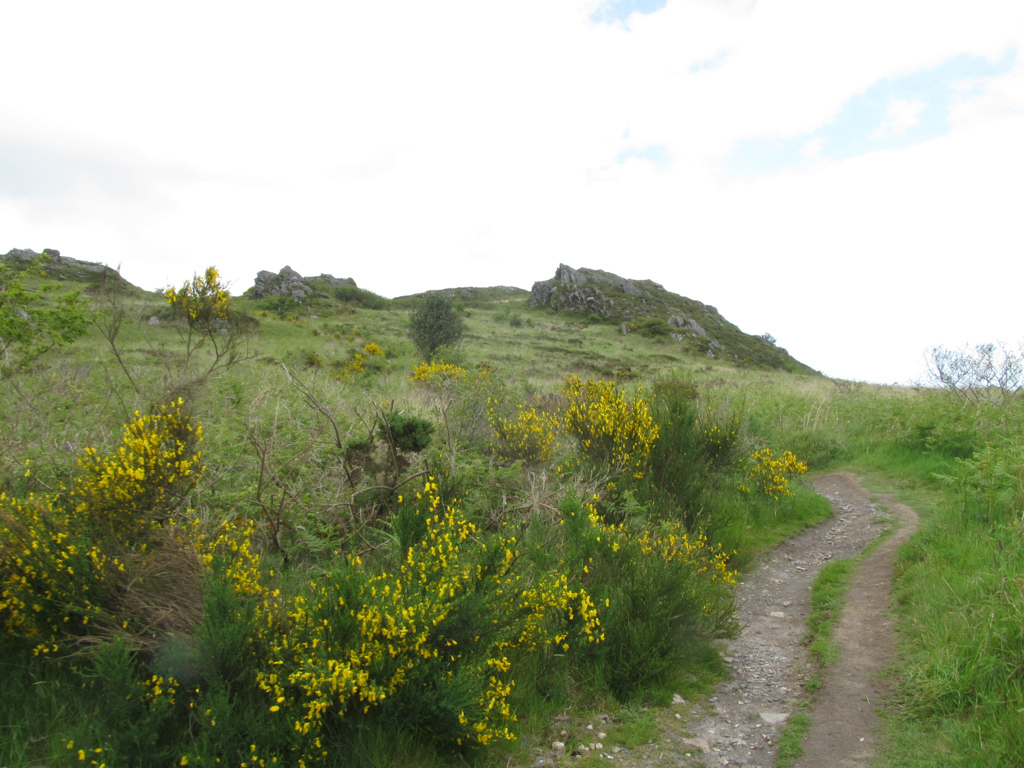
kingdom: Plantae
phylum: Tracheophyta
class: Magnoliopsida
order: Fabales
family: Fabaceae
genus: Cytisus
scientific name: Cytisus scoparius
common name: Scotch broom
